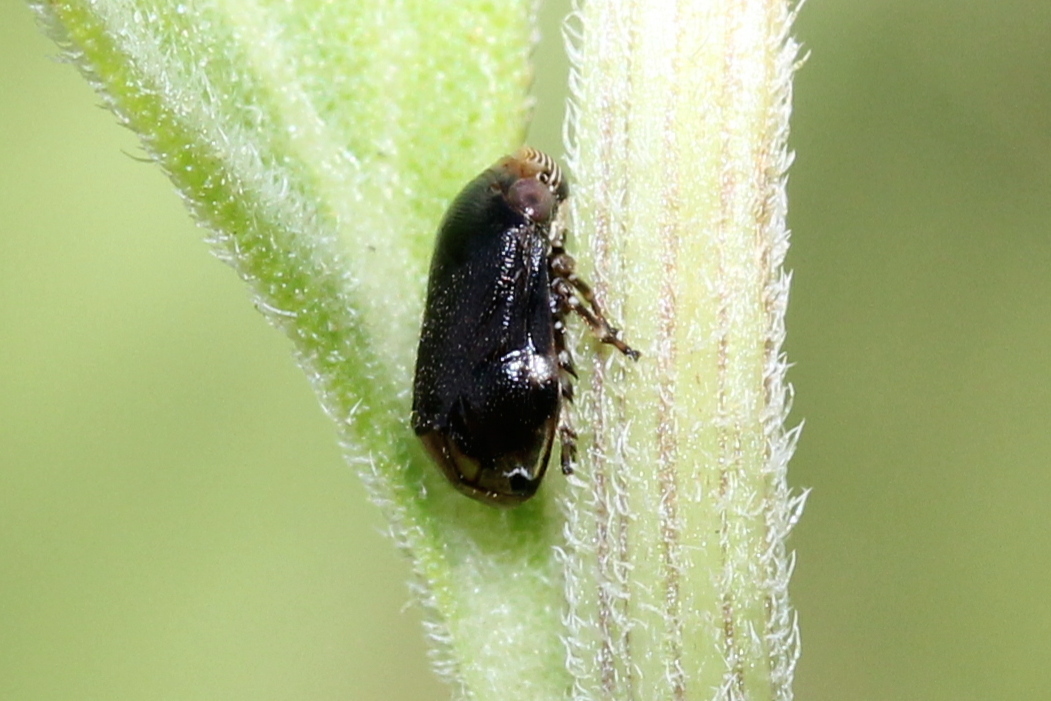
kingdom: Animalia
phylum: Arthropoda
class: Insecta
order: Hemiptera
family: Clastopteridae
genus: Clastoptera
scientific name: Clastoptera xanthocephala
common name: Sunflower spittlebug
